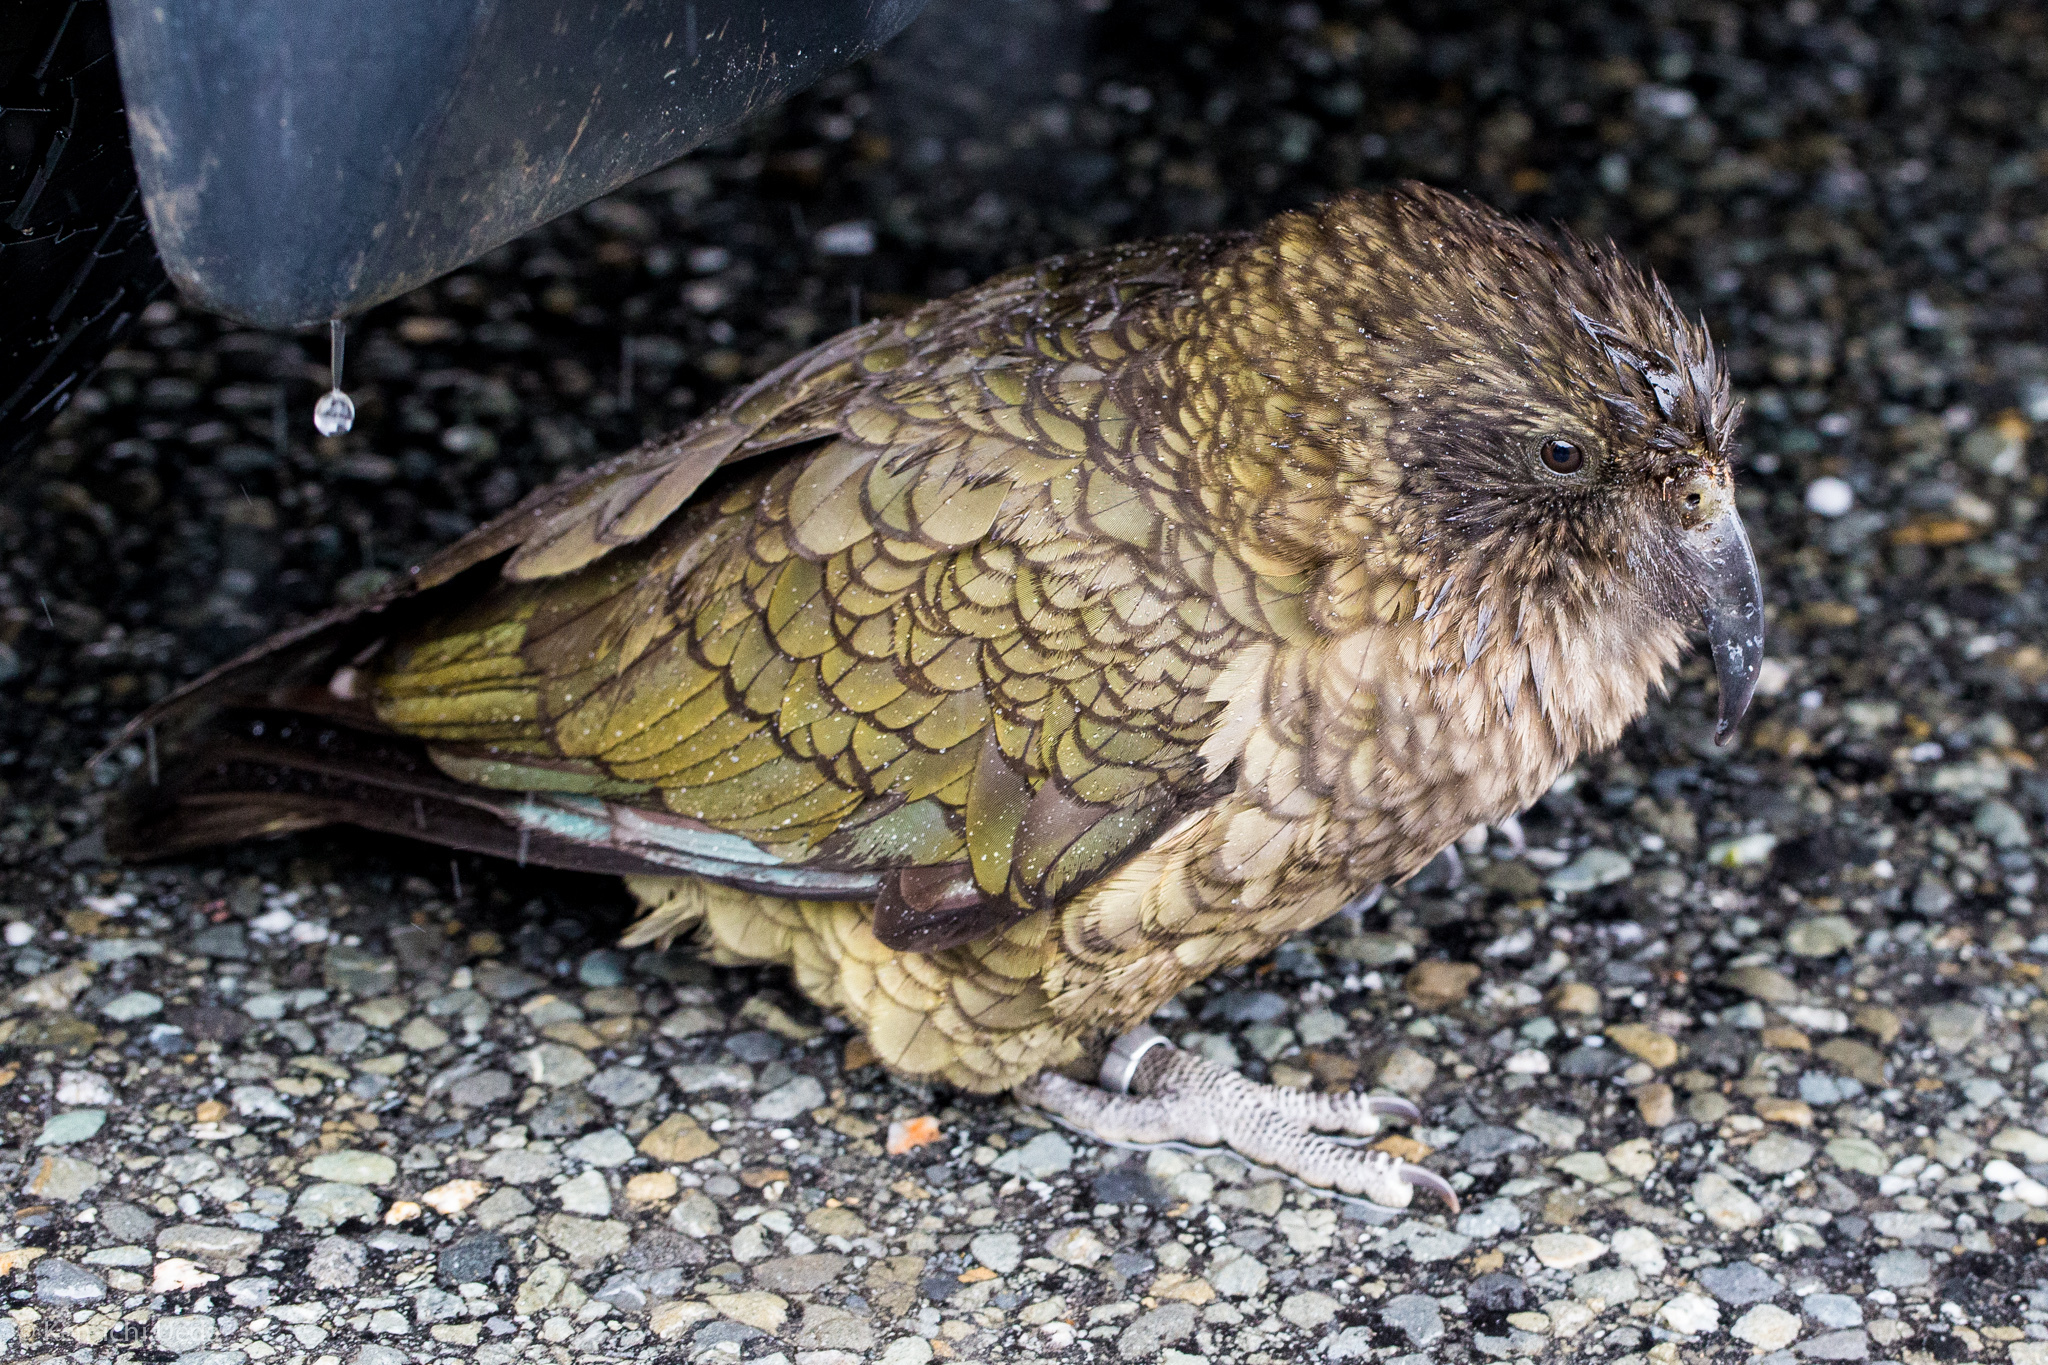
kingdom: Animalia
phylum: Chordata
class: Aves
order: Psittaciformes
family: Psittacidae
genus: Nestor
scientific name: Nestor notabilis
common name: Kea
